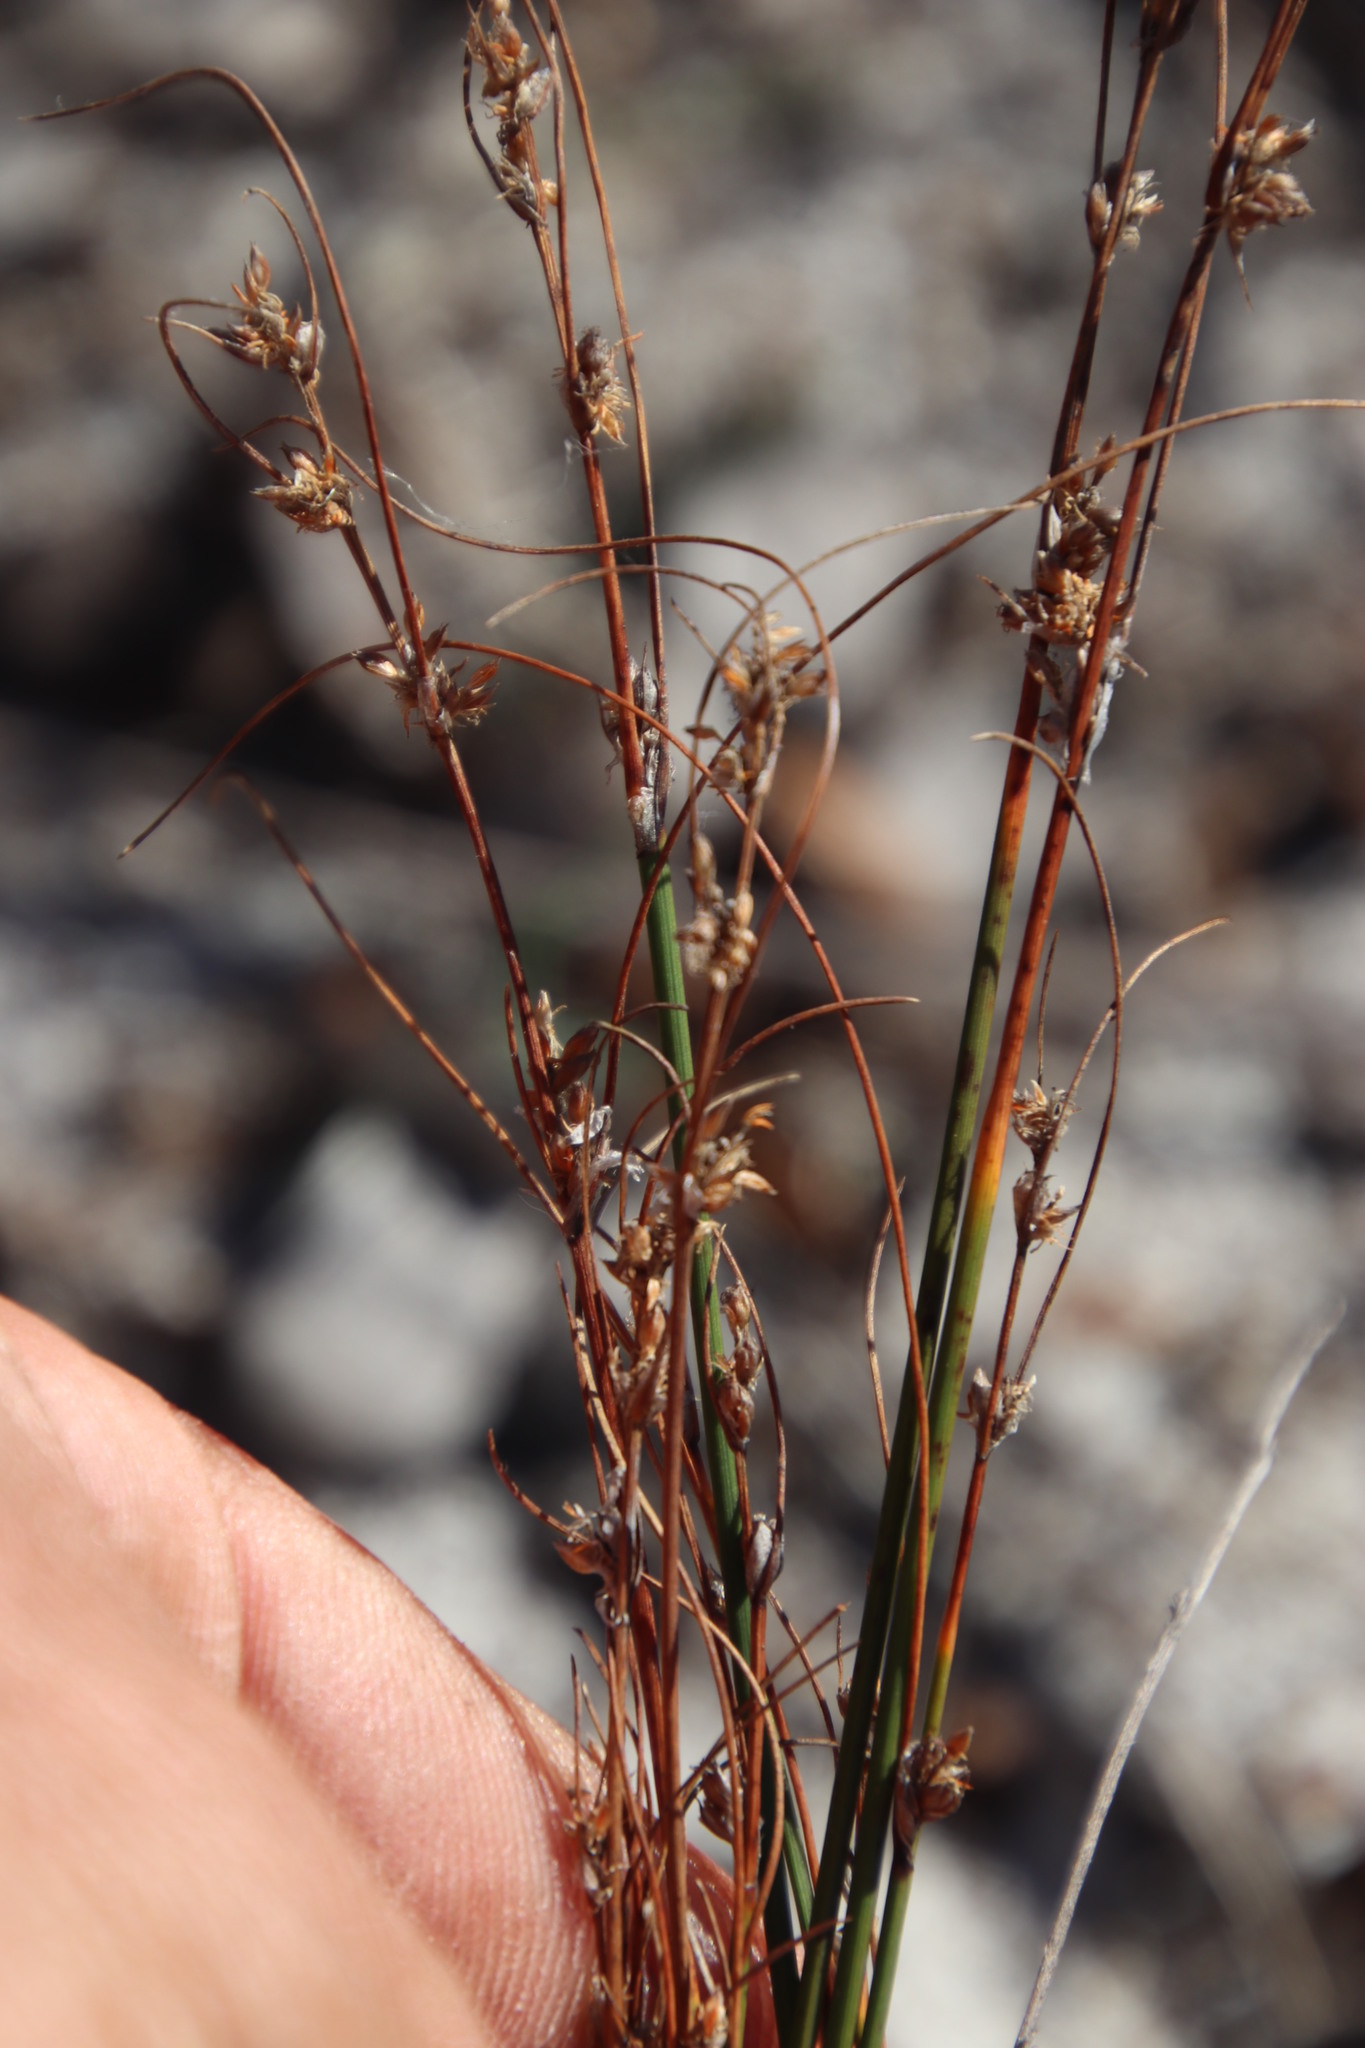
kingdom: Plantae
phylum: Tracheophyta
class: Liliopsida
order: Poales
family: Cyperaceae
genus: Ficinia
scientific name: Ficinia bulbosa
